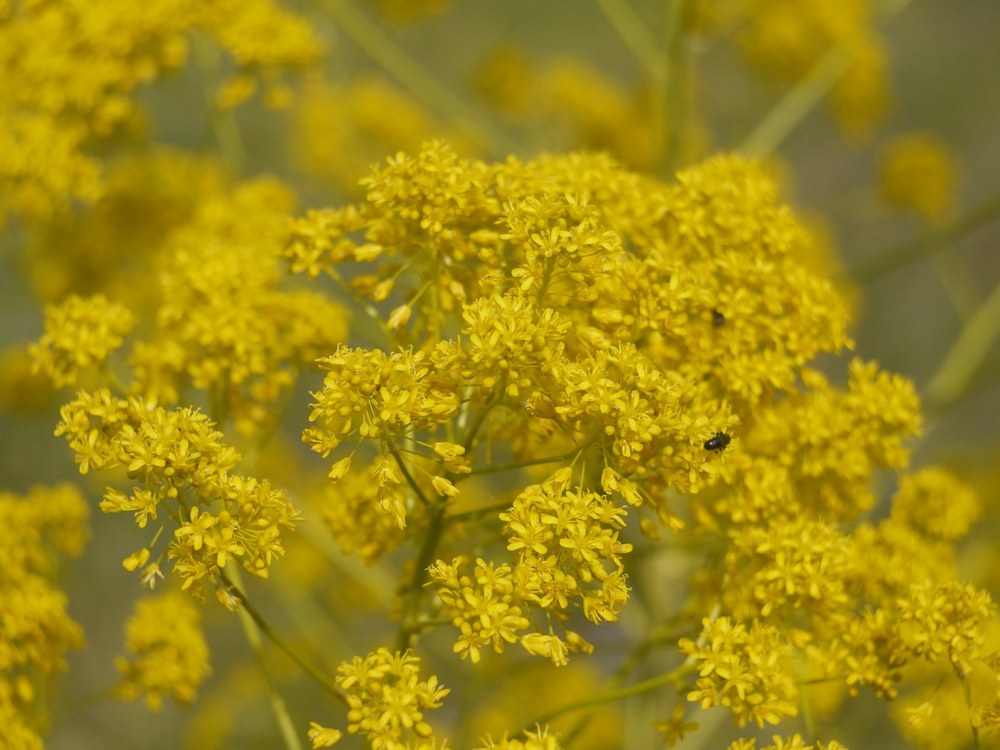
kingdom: Plantae
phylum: Tracheophyta
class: Magnoliopsida
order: Brassicales
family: Brassicaceae
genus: Isatis
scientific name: Isatis tinctoria
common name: Woad
